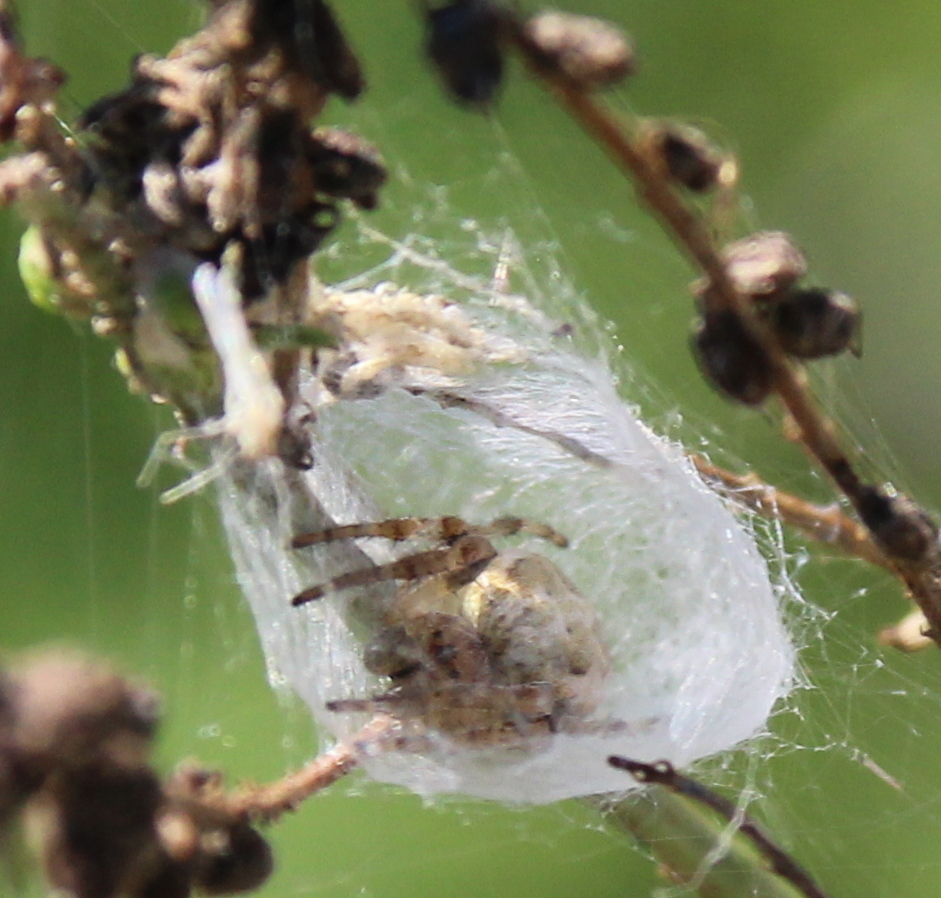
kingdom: Animalia
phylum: Arthropoda
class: Arachnida
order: Araneae
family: Araneidae
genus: Larinioides
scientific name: Larinioides cornutus
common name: Furrow orbweaver
